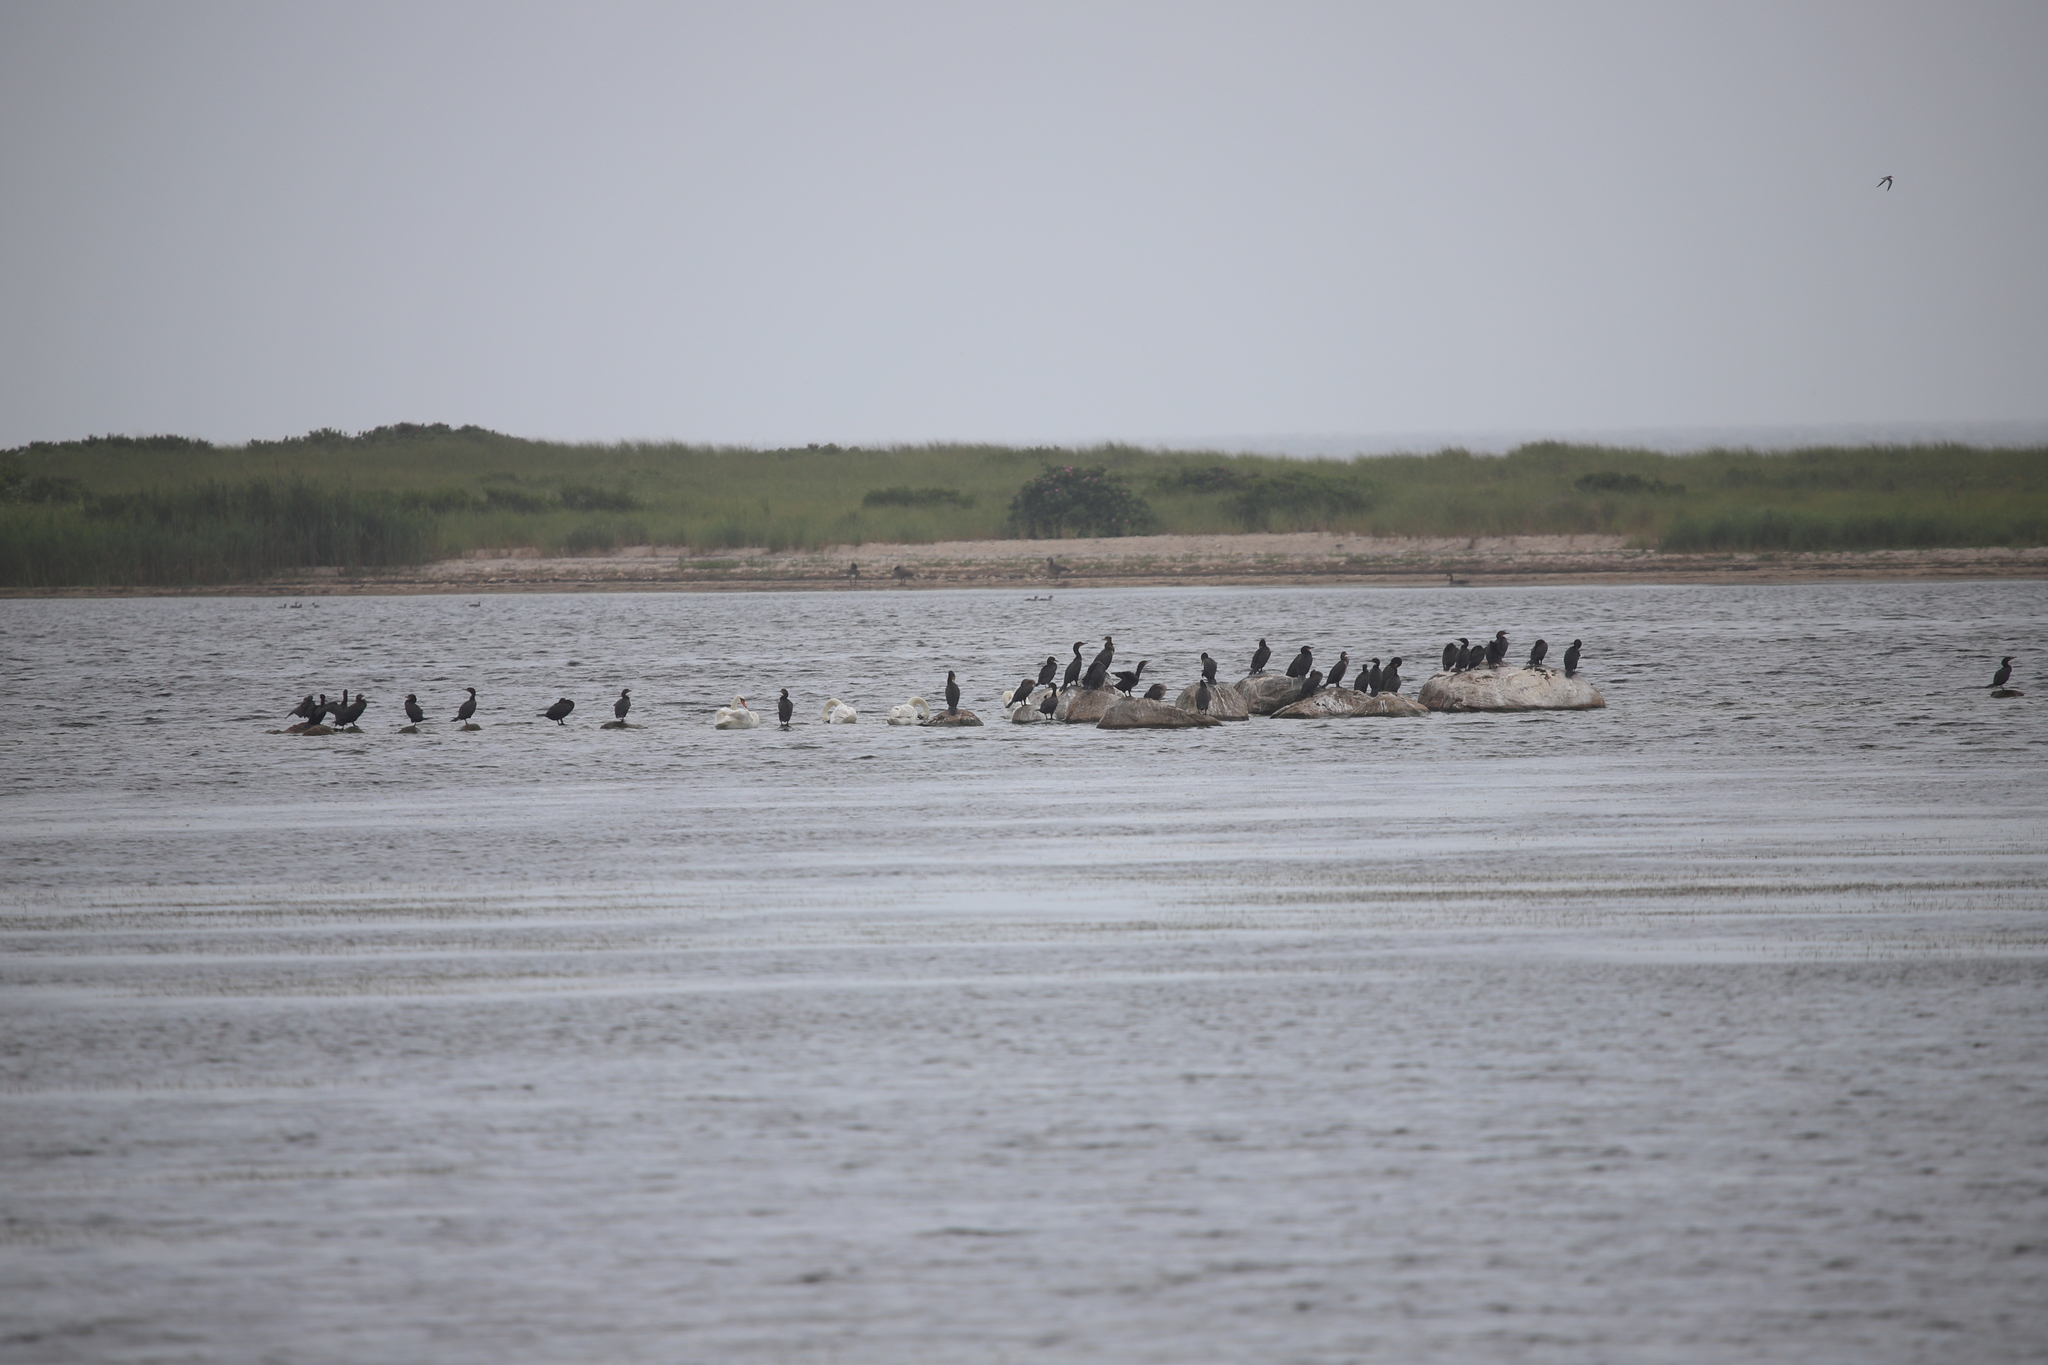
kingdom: Animalia
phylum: Chordata
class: Aves
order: Suliformes
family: Phalacrocoracidae
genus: Phalacrocorax
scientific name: Phalacrocorax auritus
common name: Double-crested cormorant
